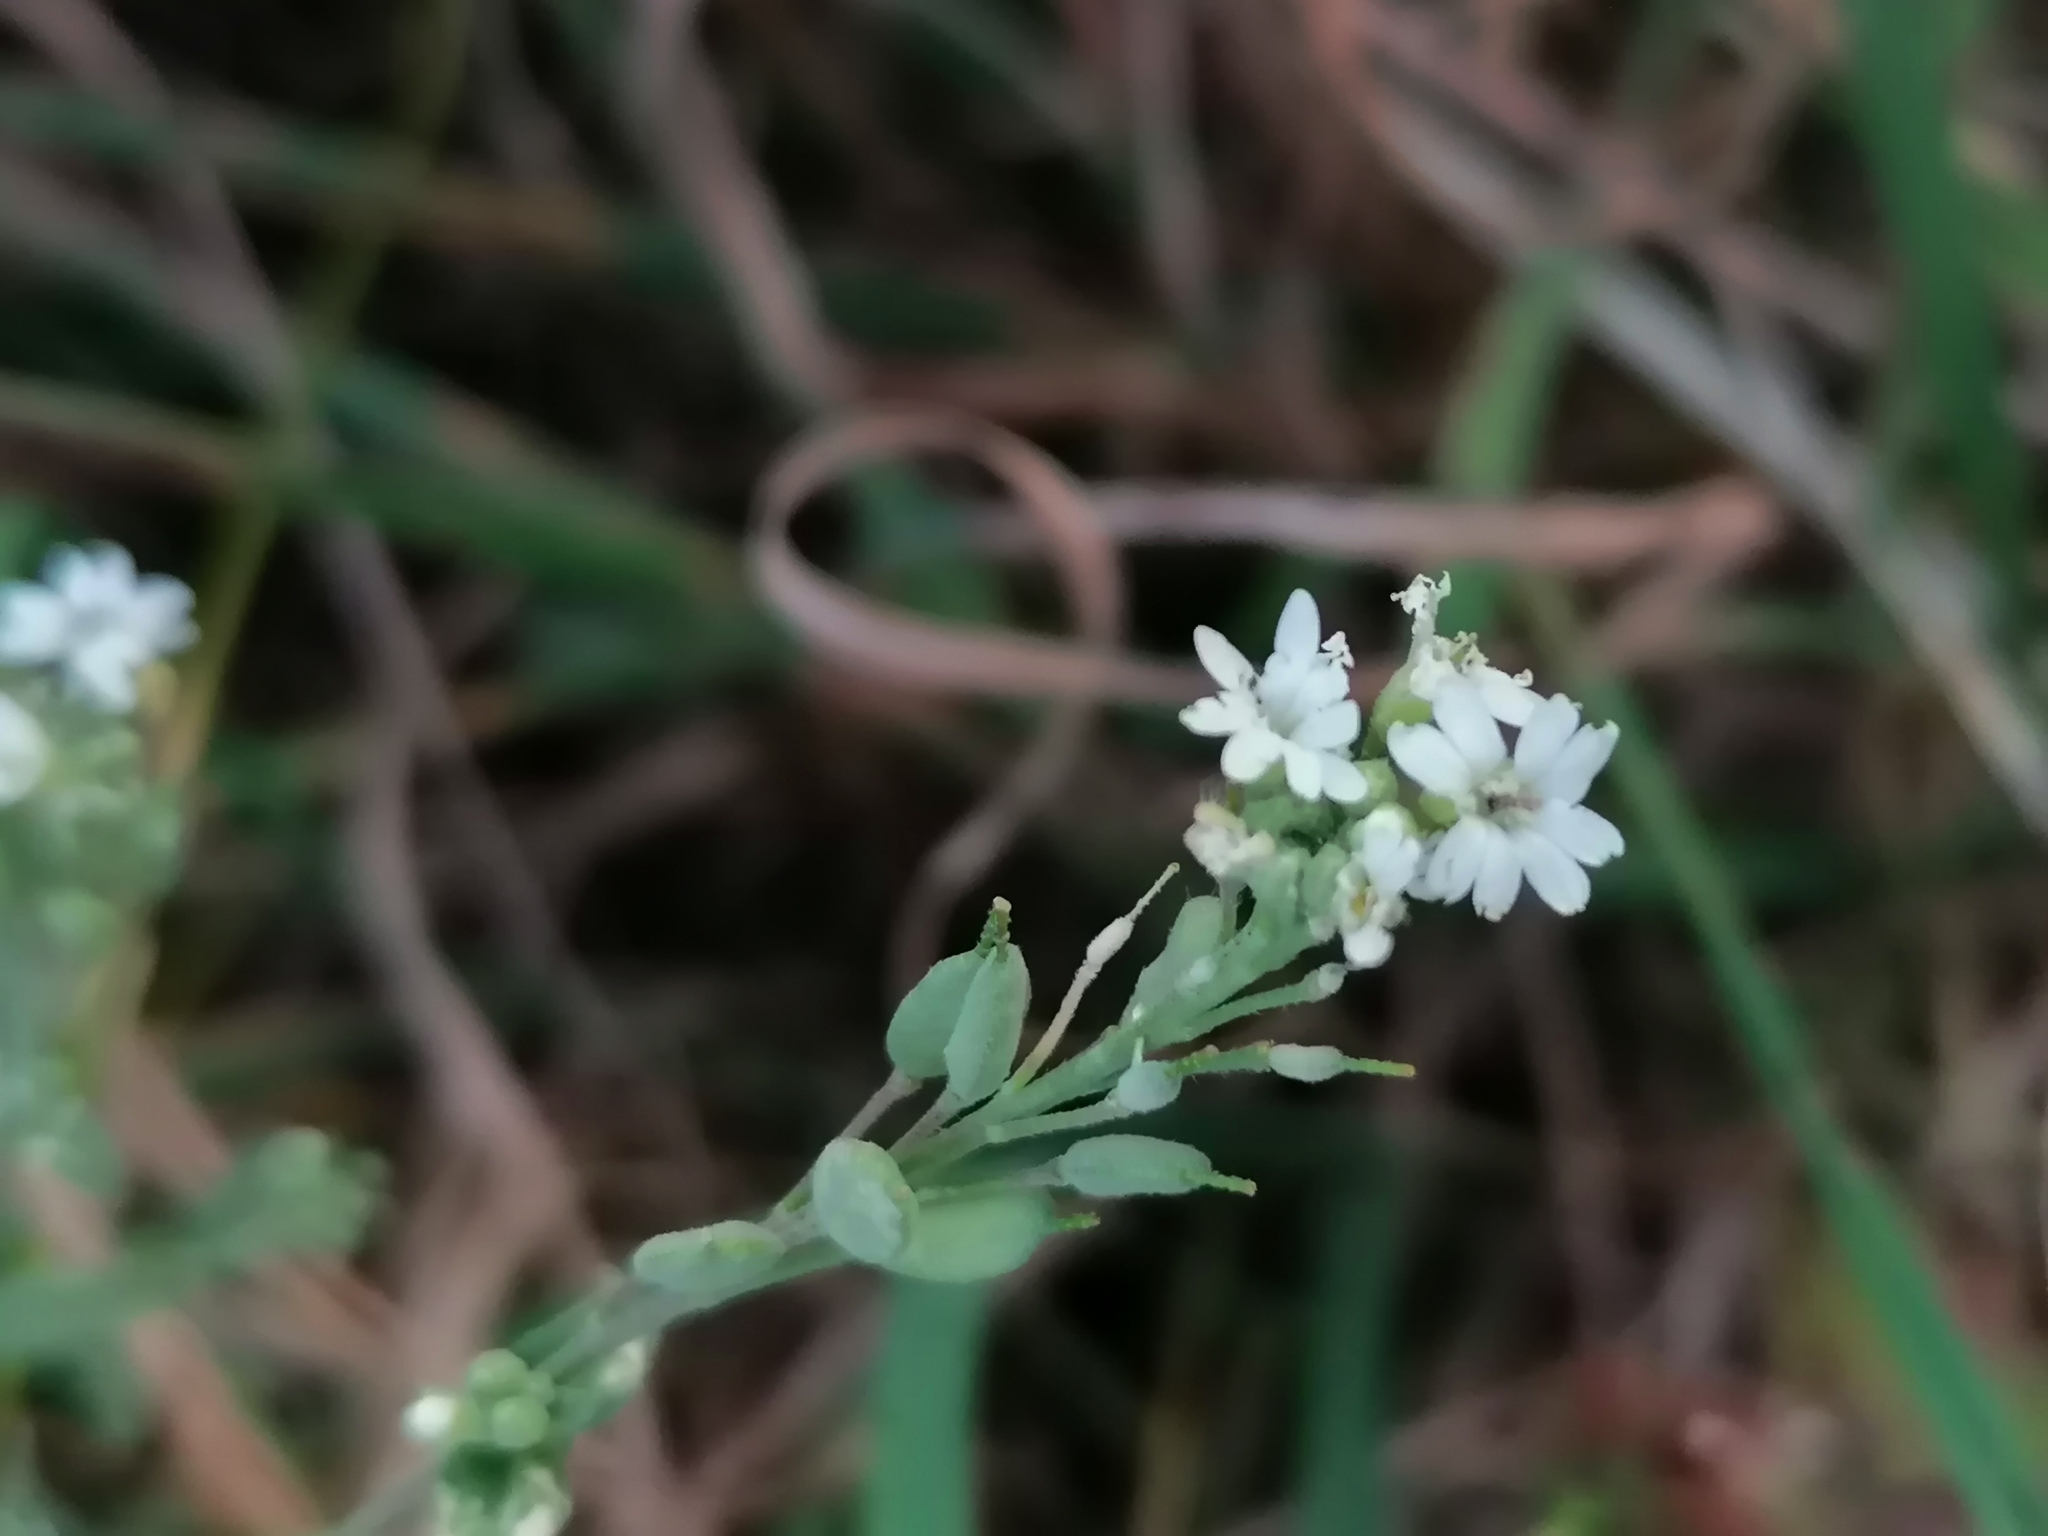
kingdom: Plantae
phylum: Tracheophyta
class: Magnoliopsida
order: Brassicales
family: Brassicaceae
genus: Berteroa
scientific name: Berteroa incana
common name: Hoary alison
